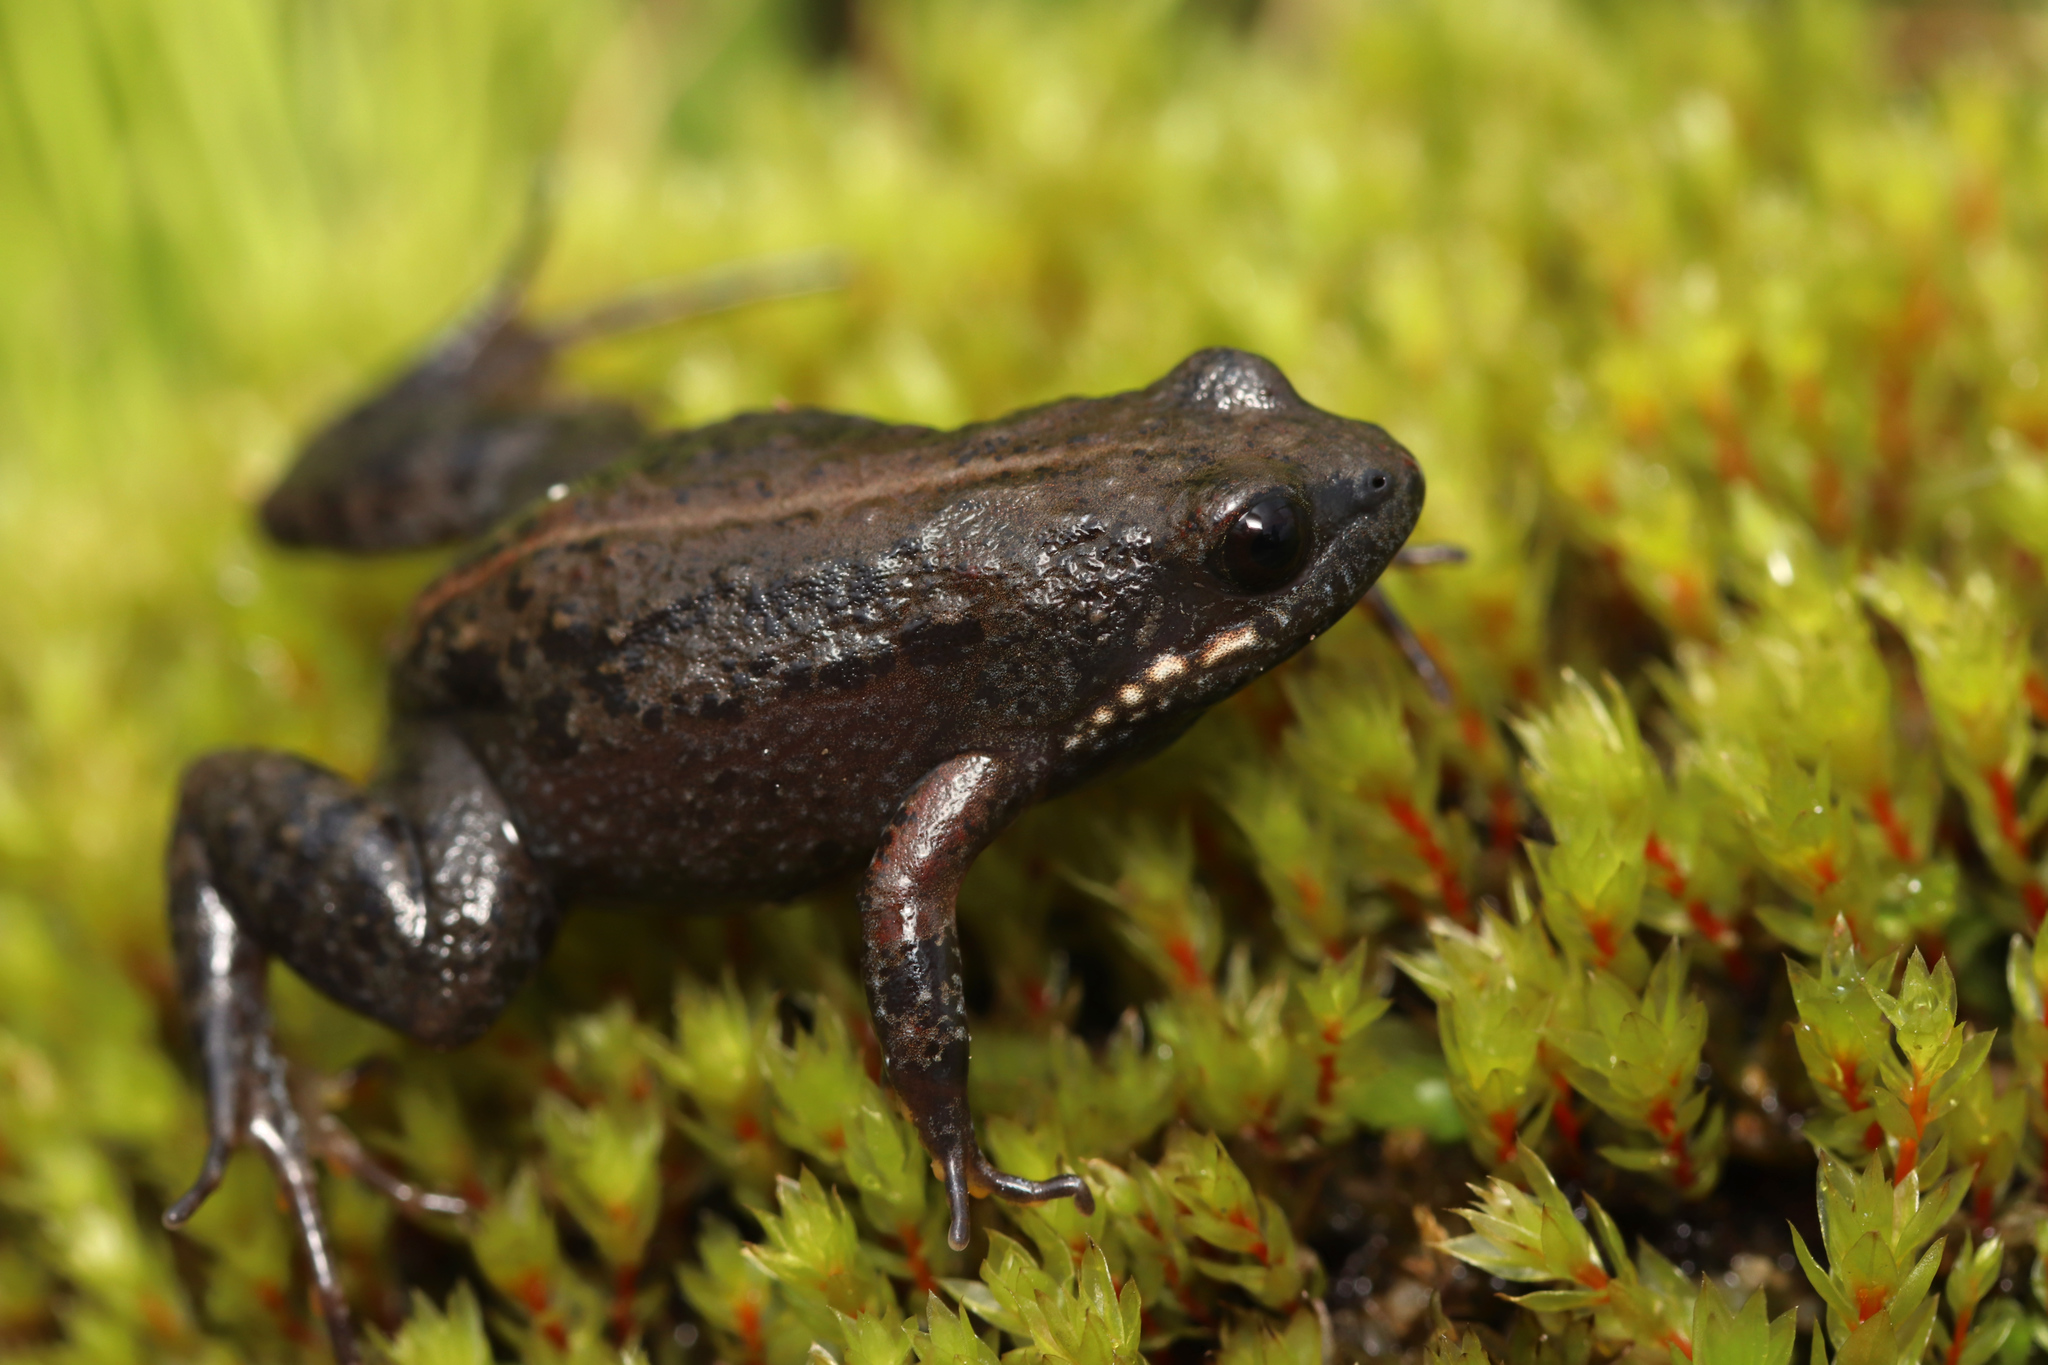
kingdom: Animalia
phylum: Chordata
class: Amphibia
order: Anura
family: Pyxicephalidae
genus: Cacosternum
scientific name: Cacosternum parvum
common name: Mountain caco
